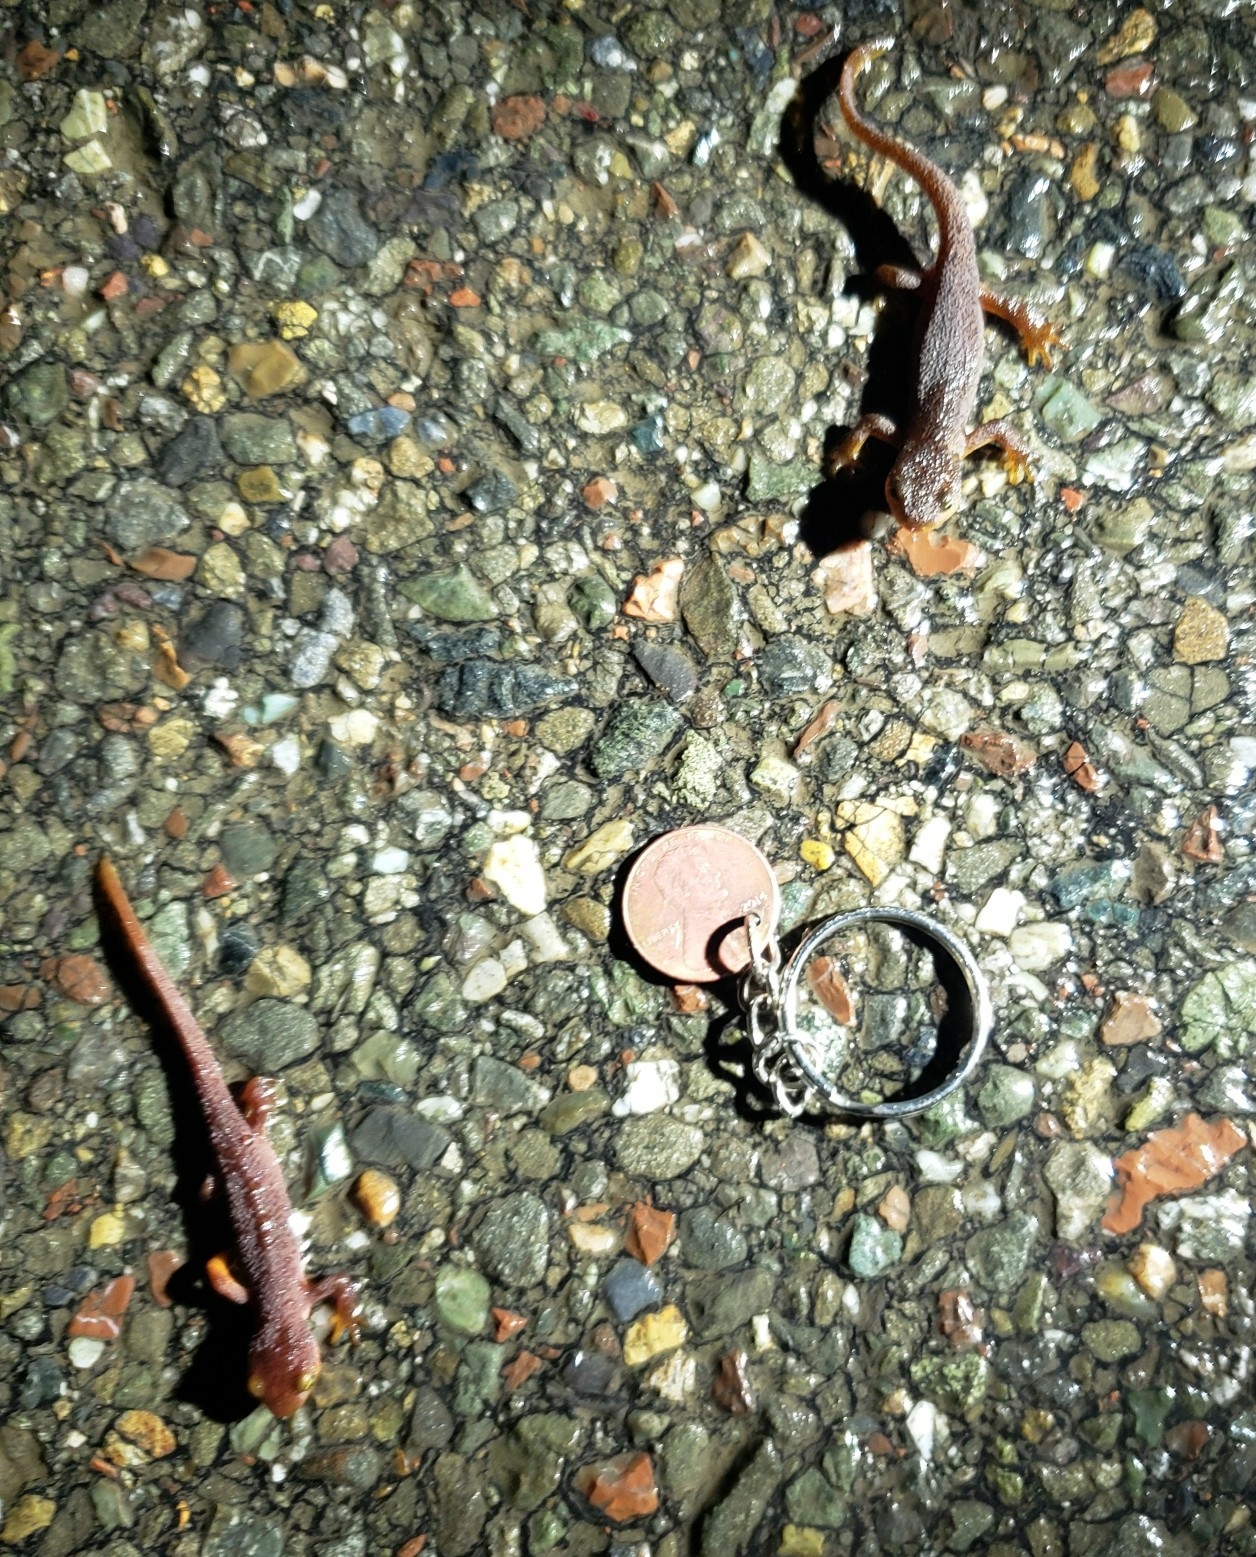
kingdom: Animalia
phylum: Chordata
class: Amphibia
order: Caudata
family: Salamandridae
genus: Taricha
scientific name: Taricha torosa
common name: California newt
